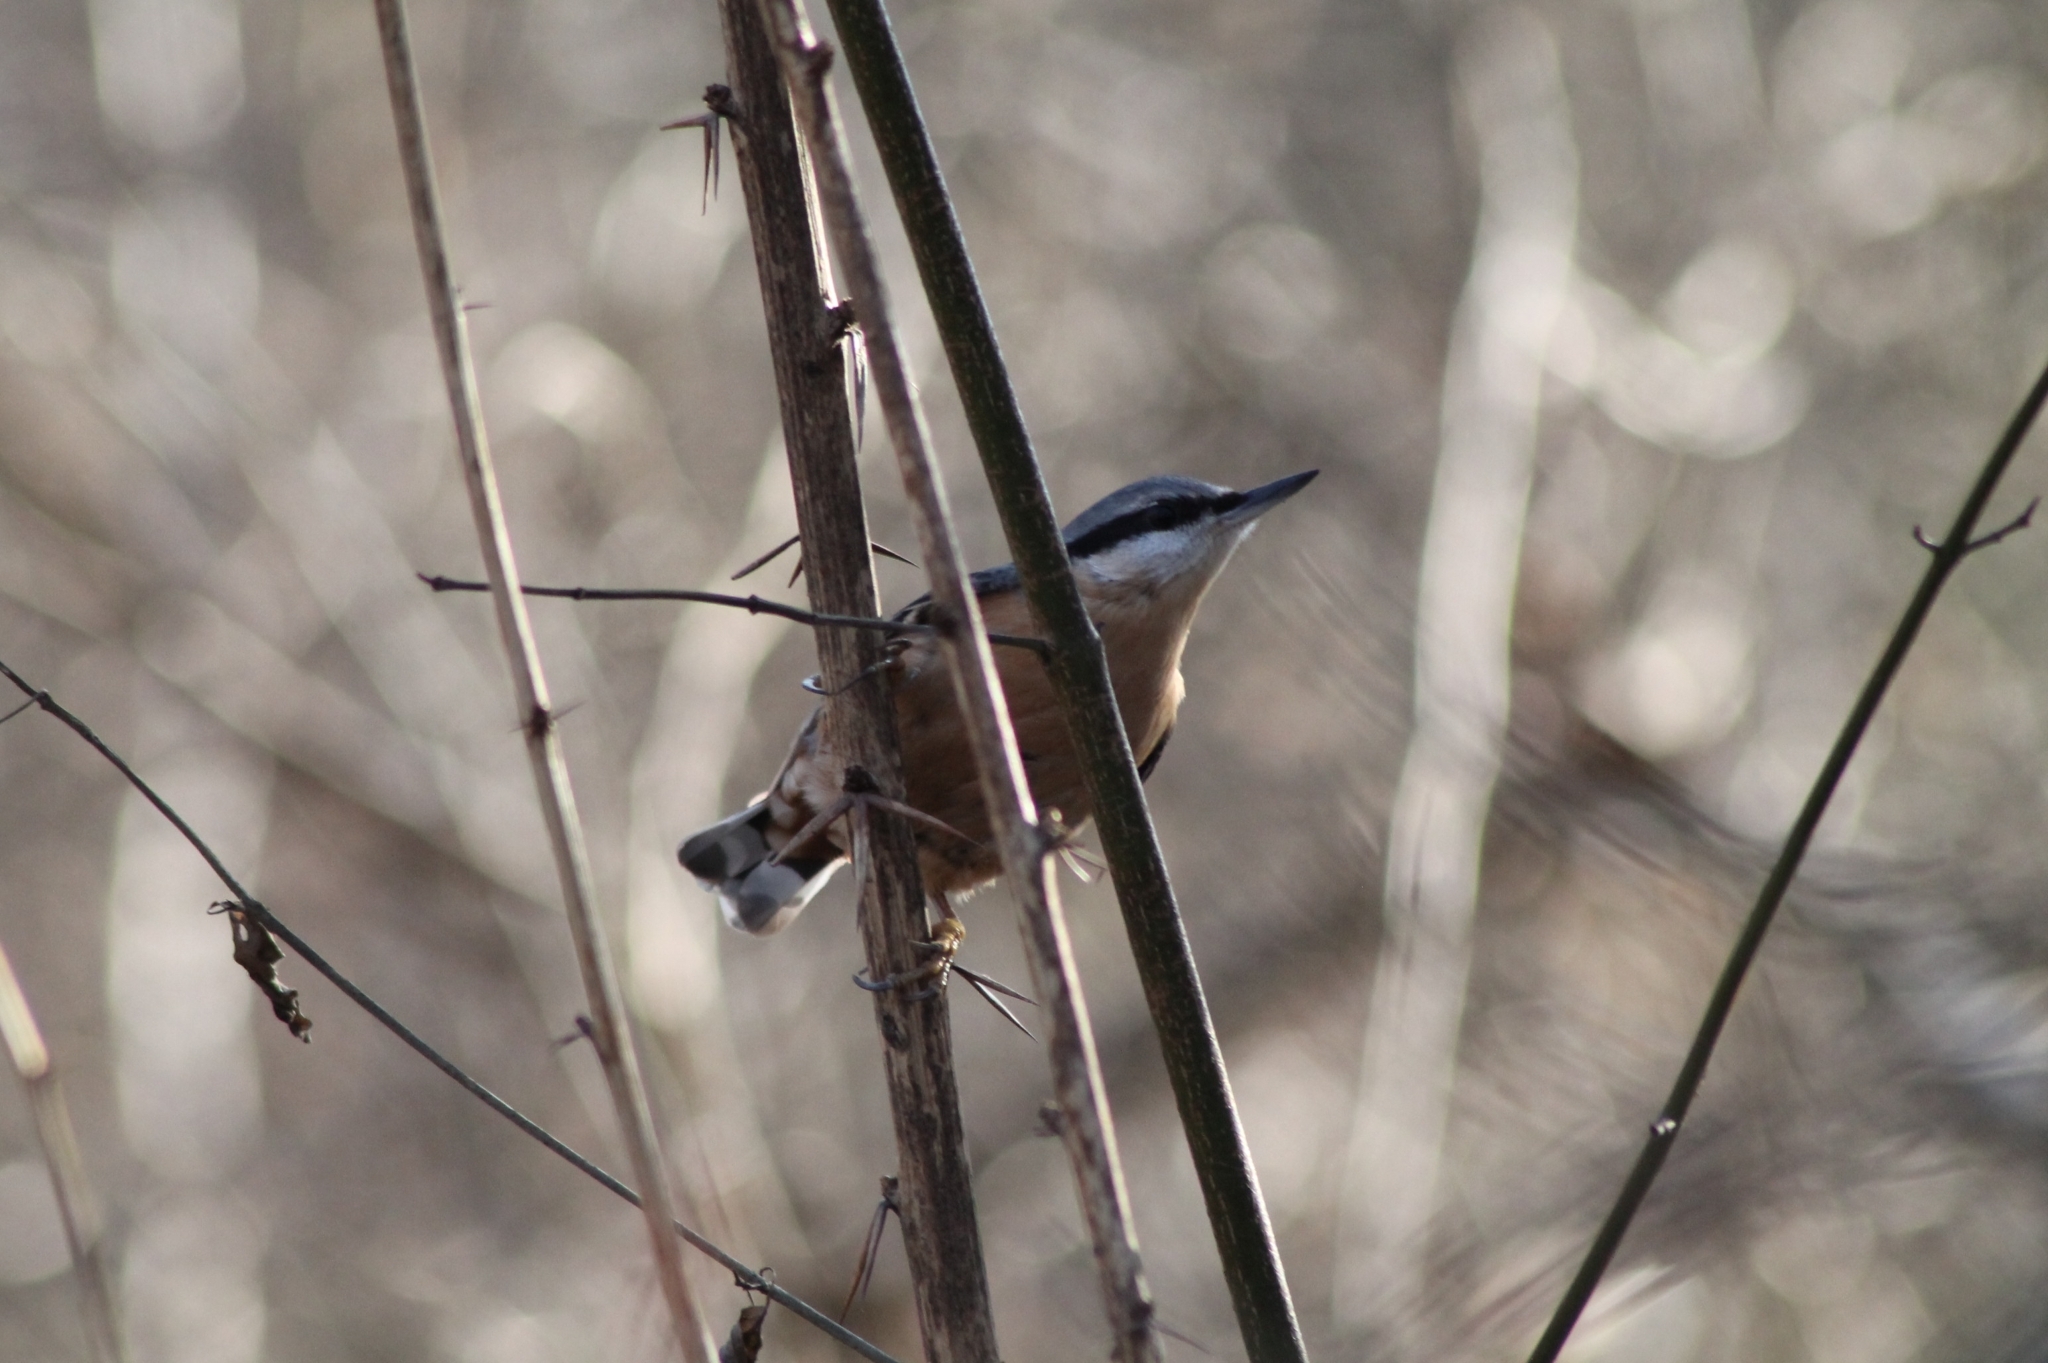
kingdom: Animalia
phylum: Chordata
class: Aves
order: Passeriformes
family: Sittidae
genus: Sitta
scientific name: Sitta europaea
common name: Eurasian nuthatch
